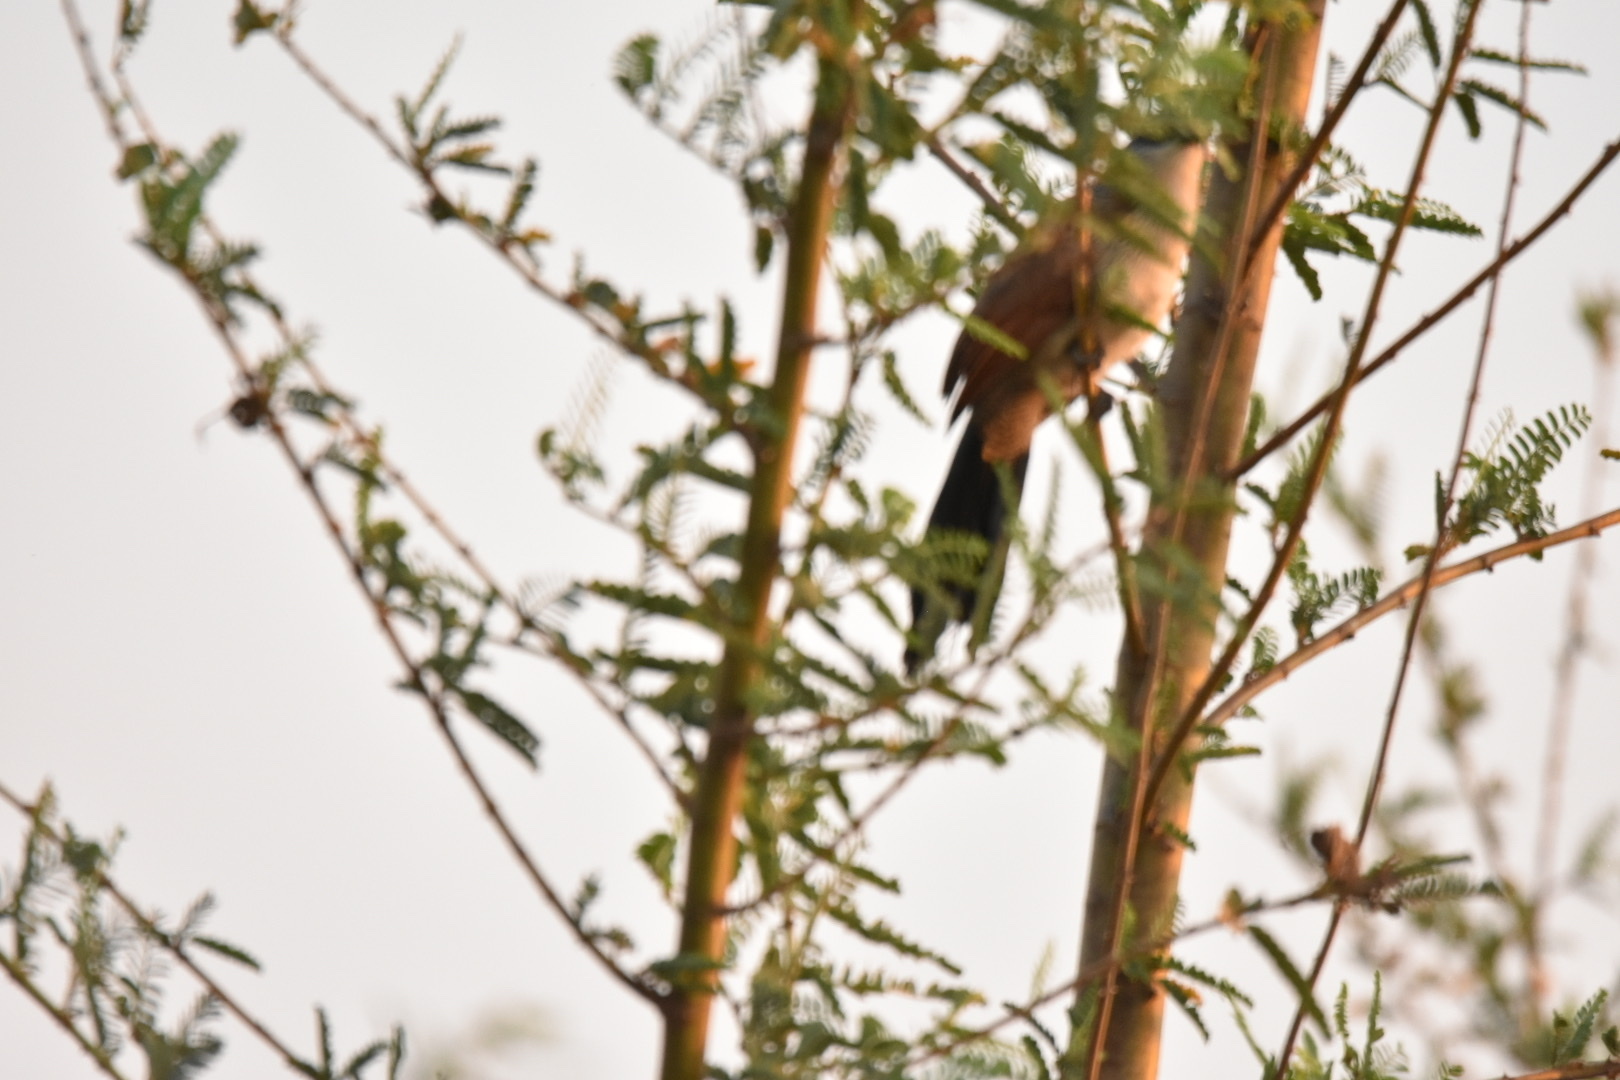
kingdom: Animalia
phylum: Chordata
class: Aves
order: Cuculiformes
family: Cuculidae
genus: Centropus
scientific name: Centropus superciliosus
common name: White-browed coucal
